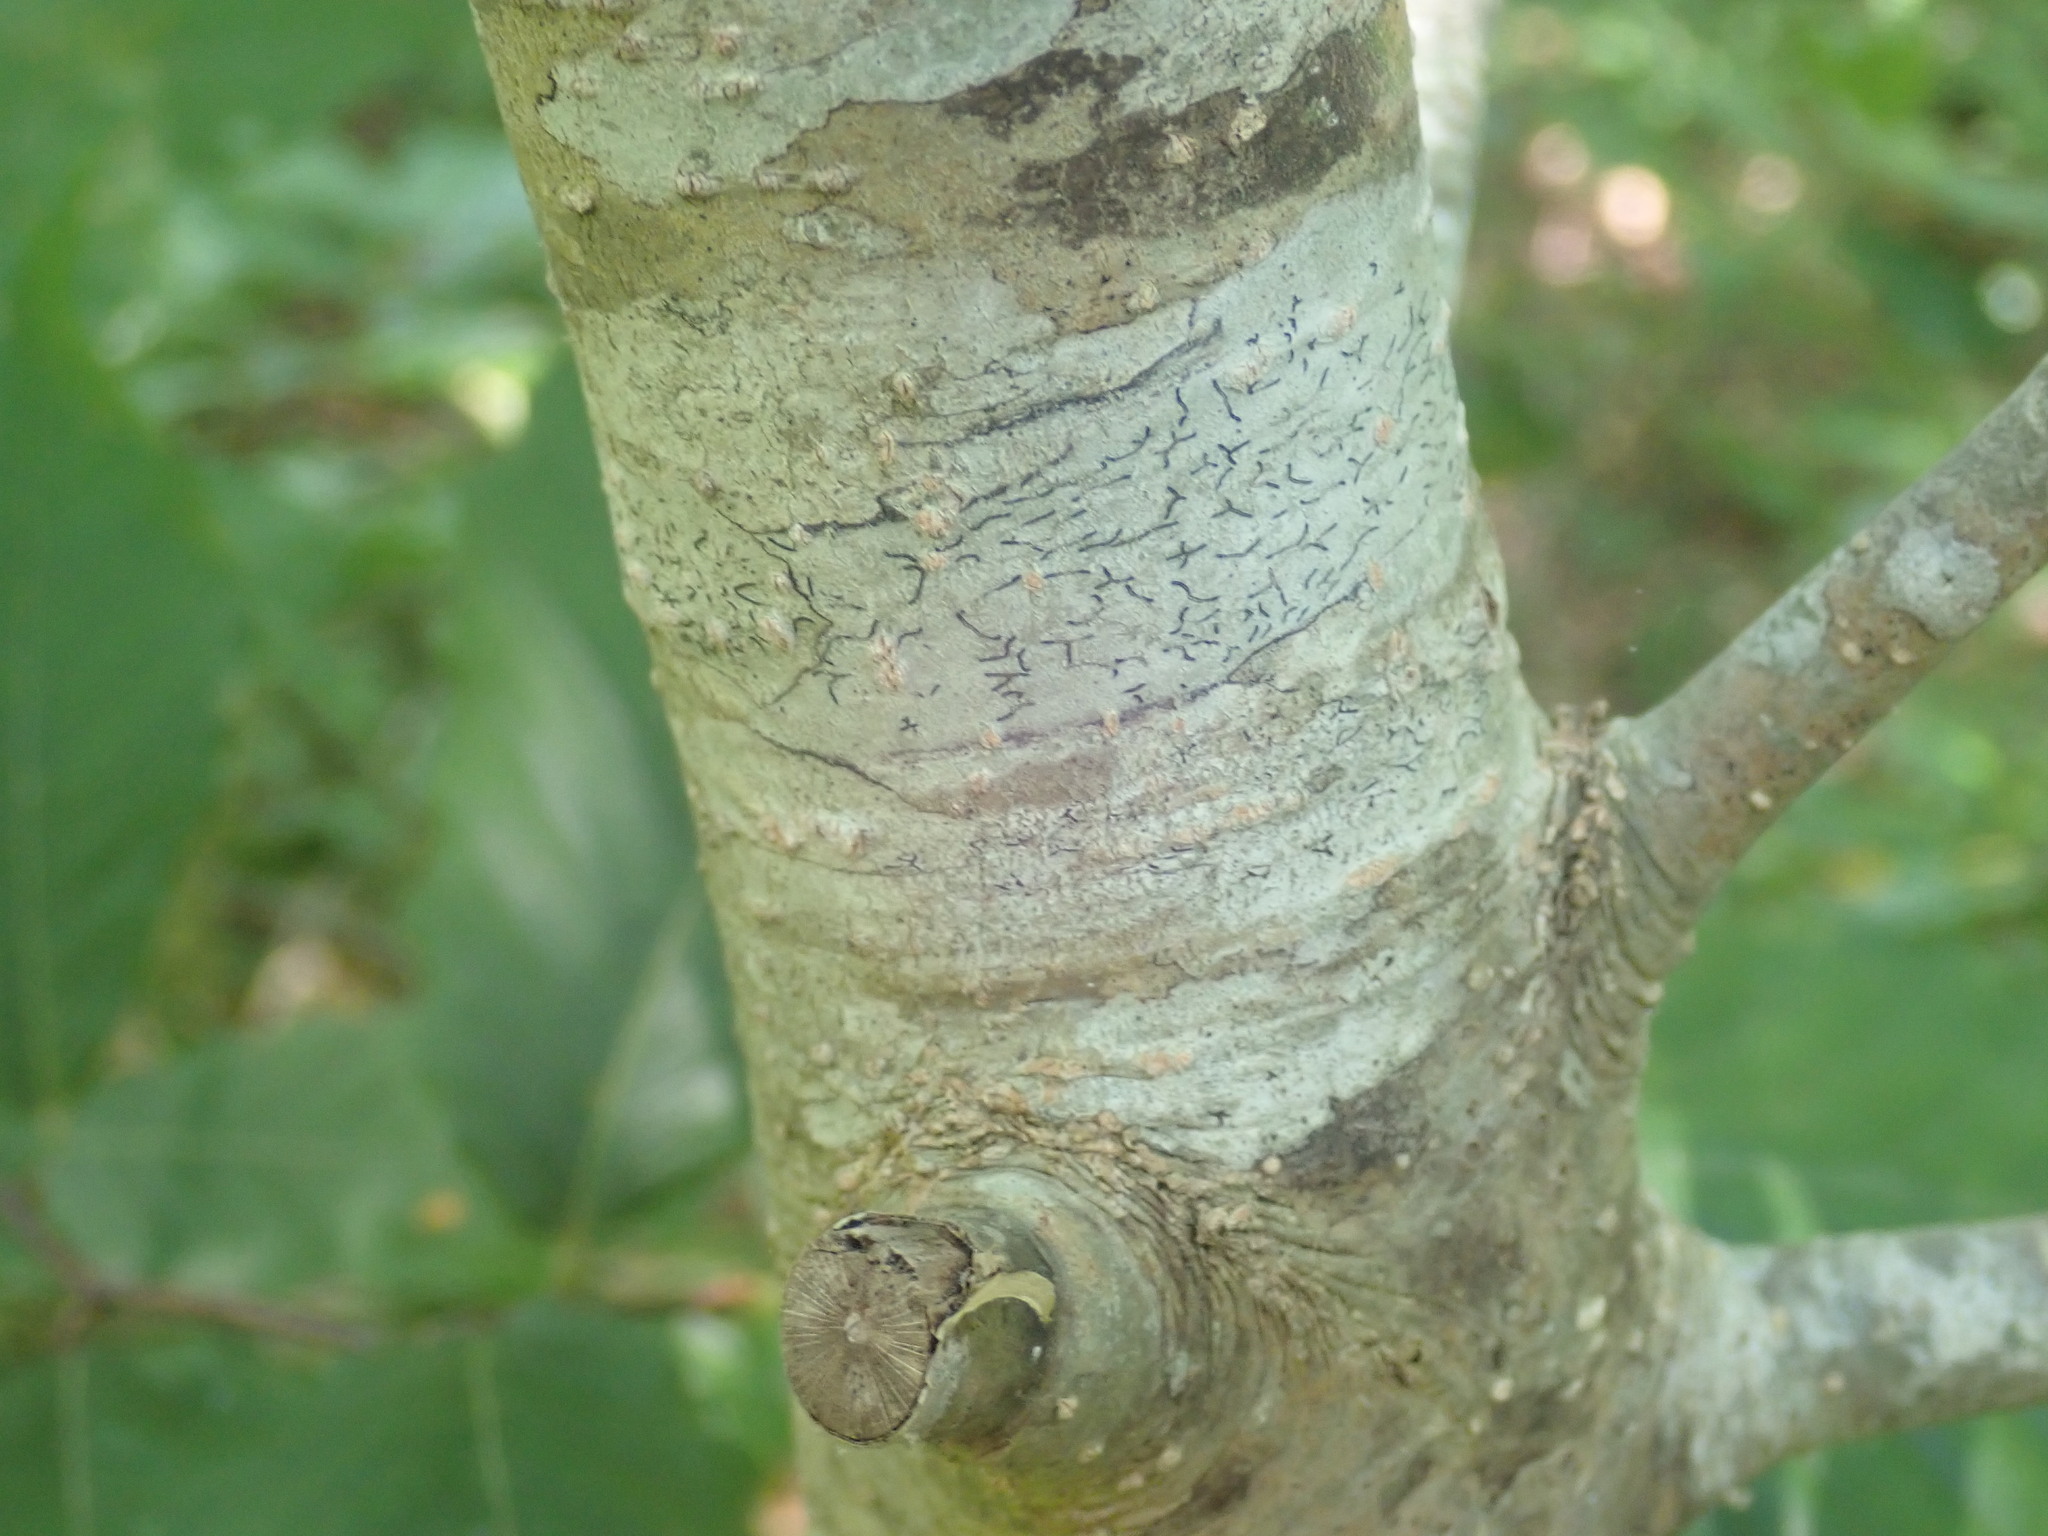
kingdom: Fungi
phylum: Ascomycota
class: Lecanoromycetes
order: Ostropales
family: Graphidaceae
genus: Graphis
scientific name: Graphis scripta
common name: Script lichen
